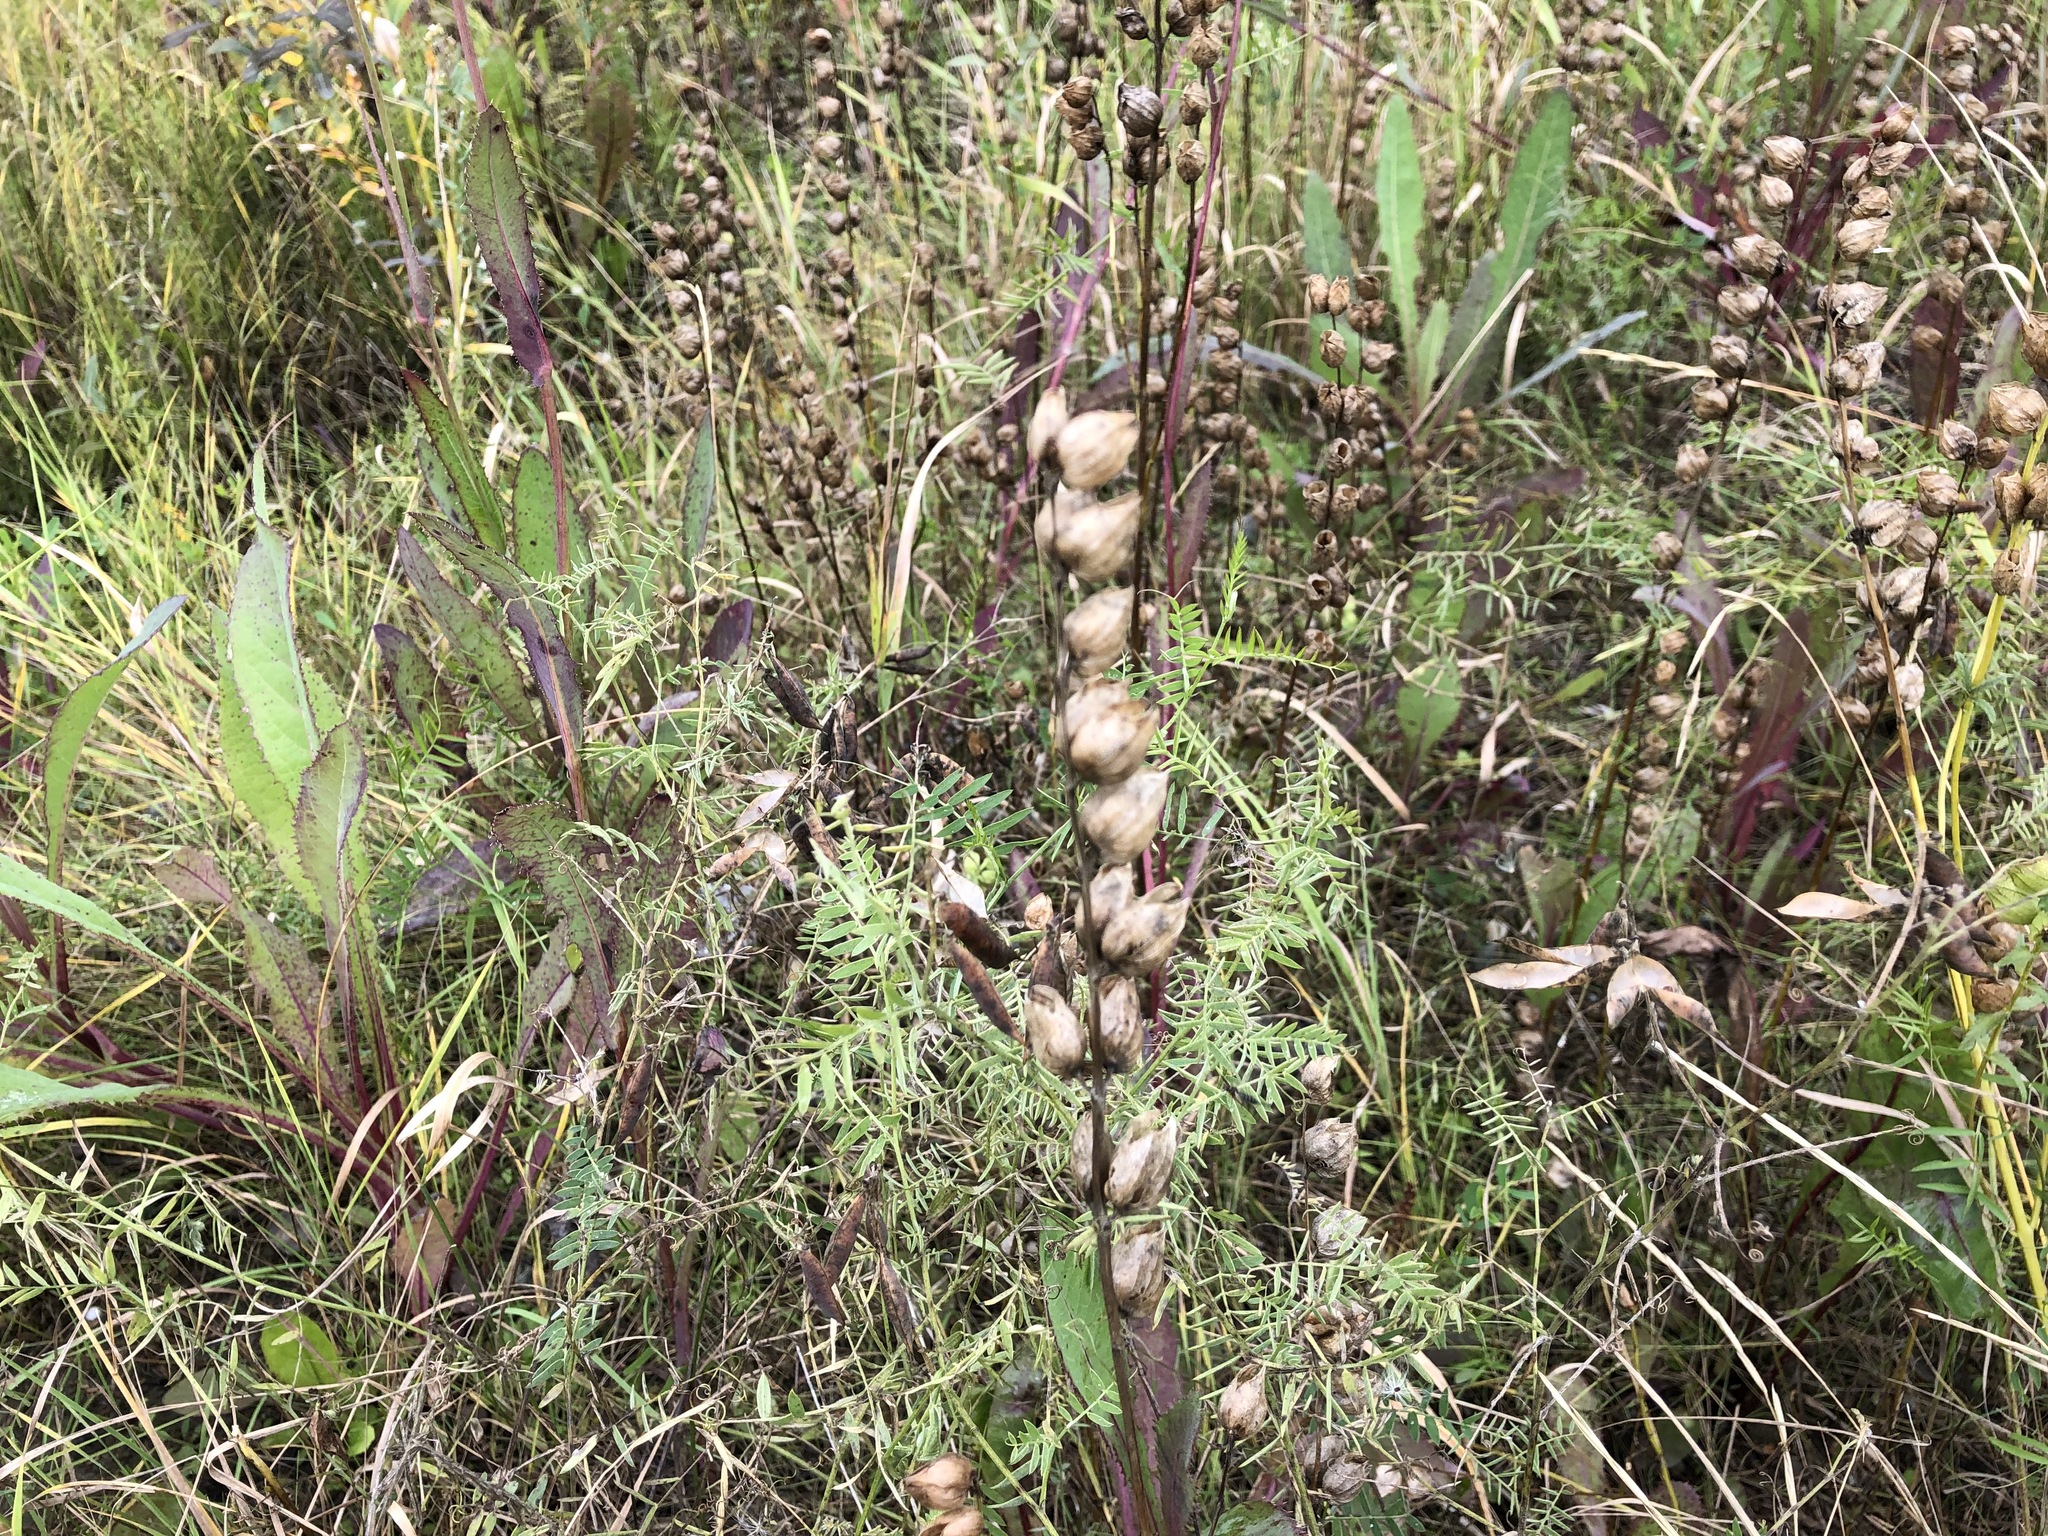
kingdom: Plantae
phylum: Tracheophyta
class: Magnoliopsida
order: Lamiales
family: Orobanchaceae
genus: Rhinanthus
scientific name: Rhinanthus minor
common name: Yellow-rattle
